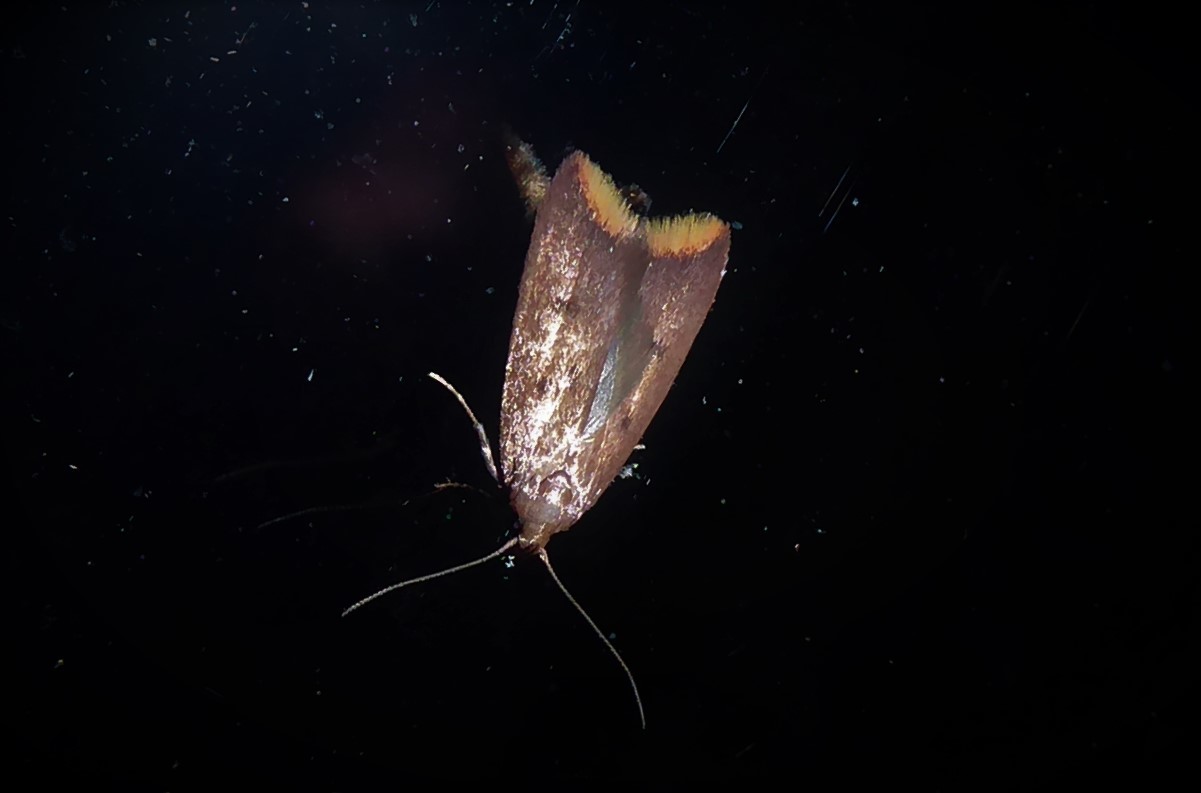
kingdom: Animalia
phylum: Arthropoda
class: Insecta
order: Lepidoptera
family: Oecophoridae
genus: Tachystola
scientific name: Tachystola acroxantha
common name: Ruddy streak
